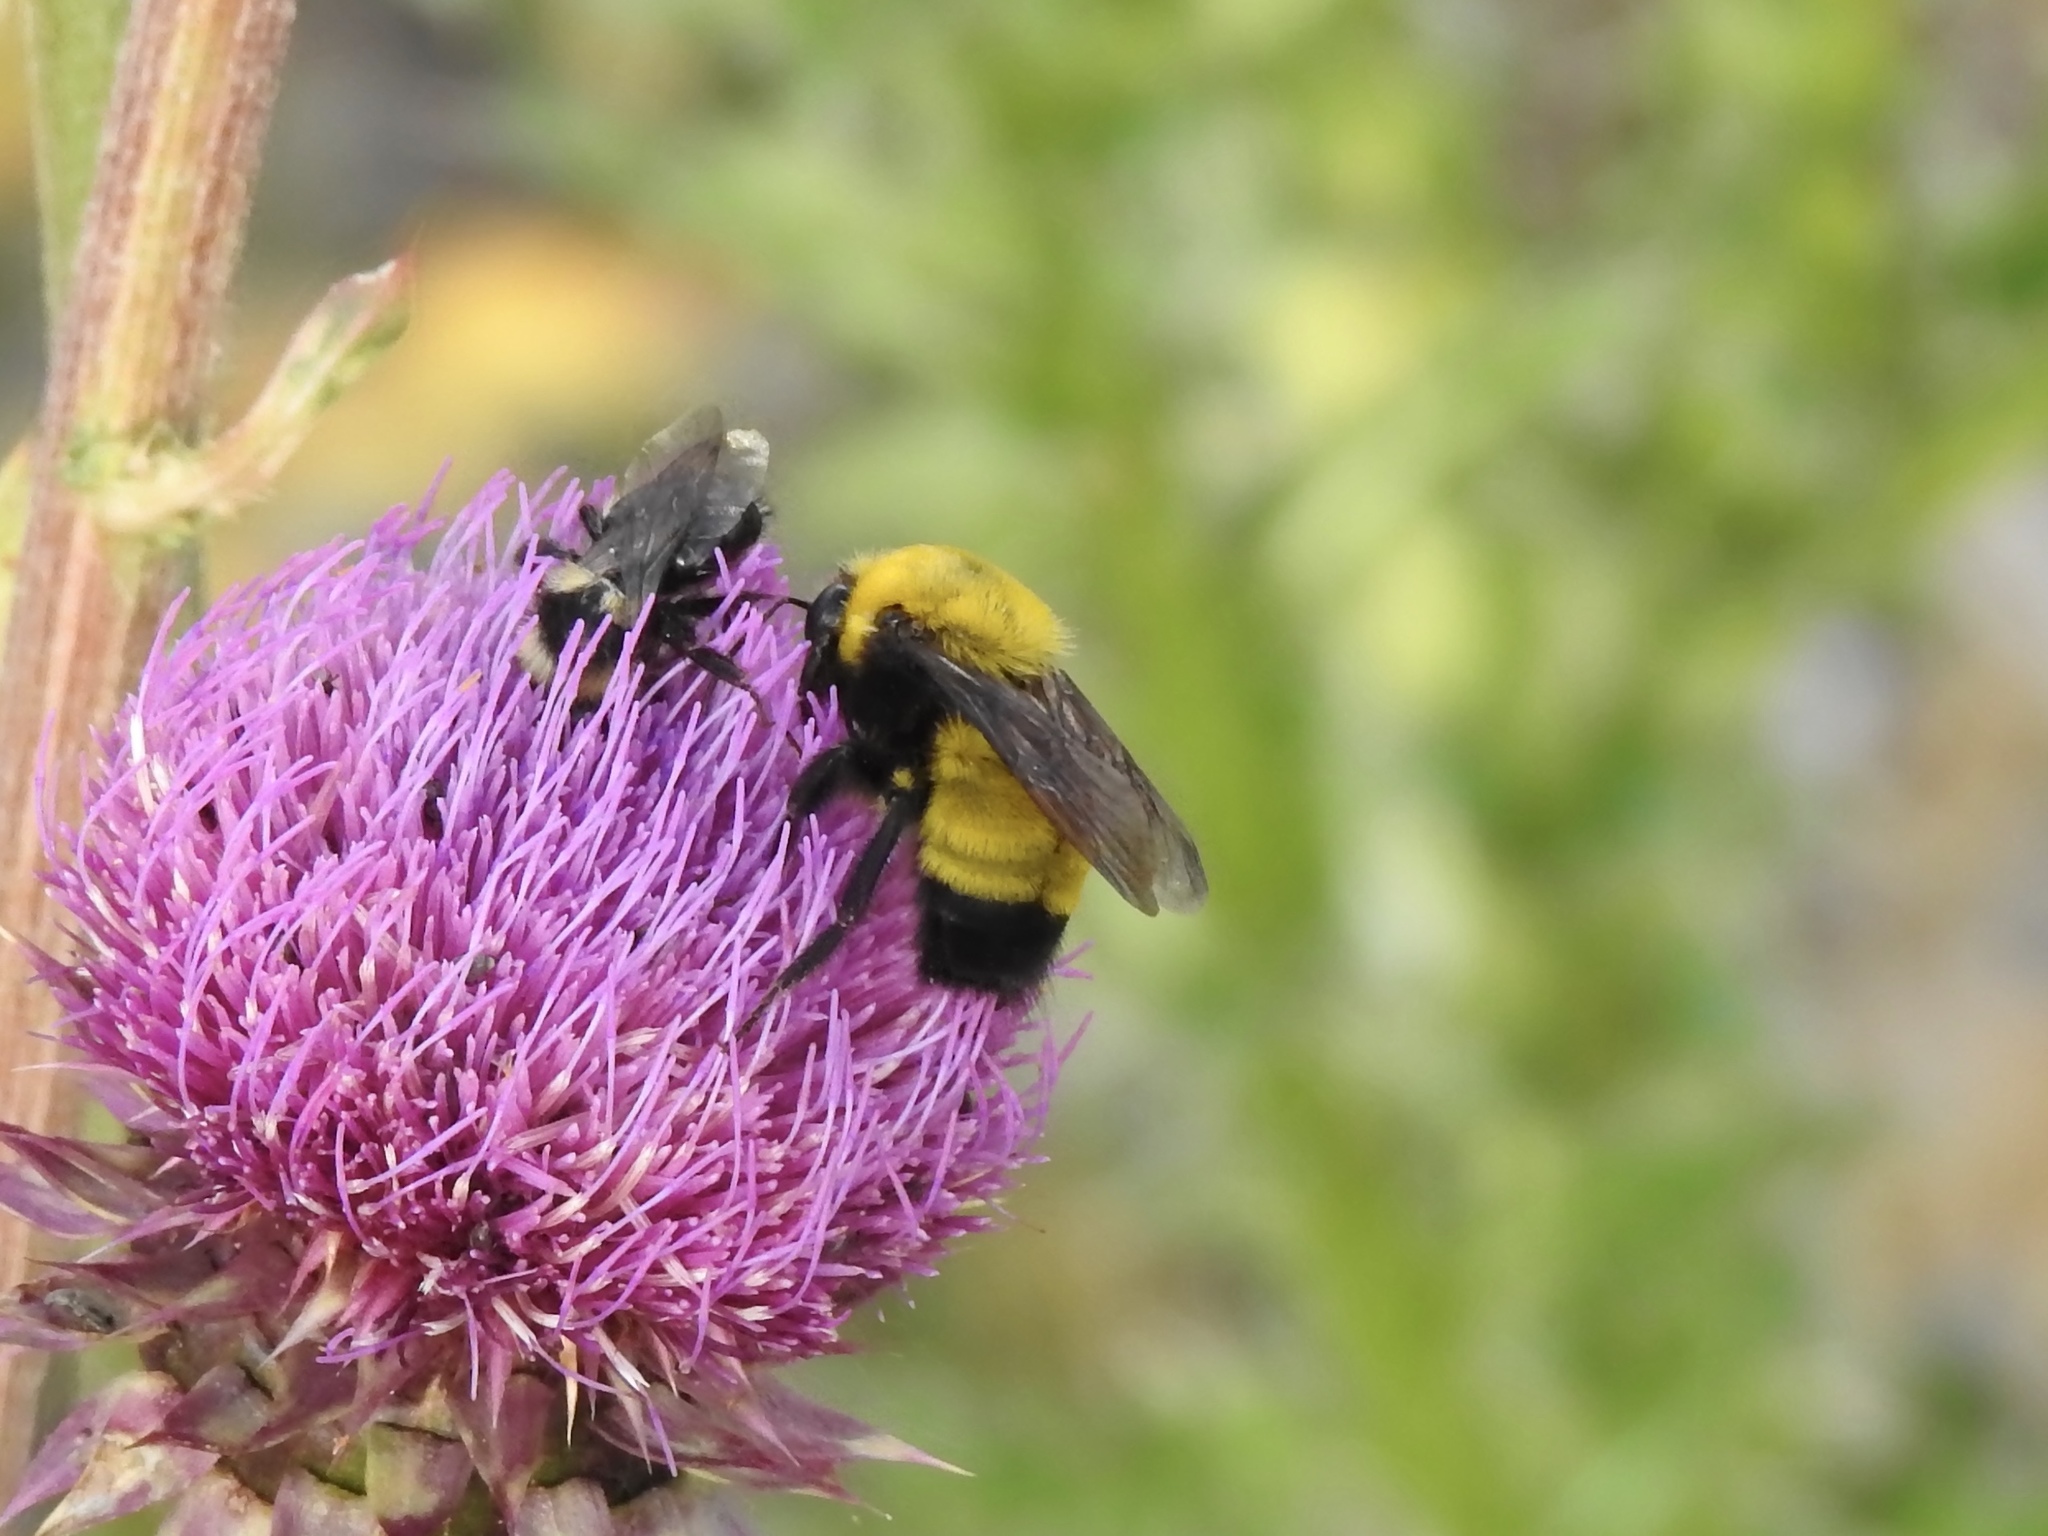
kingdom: Animalia
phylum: Arthropoda
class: Insecta
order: Hymenoptera
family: Apidae
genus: Bombus
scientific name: Bombus morrisoni
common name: Morrison bumble bee
